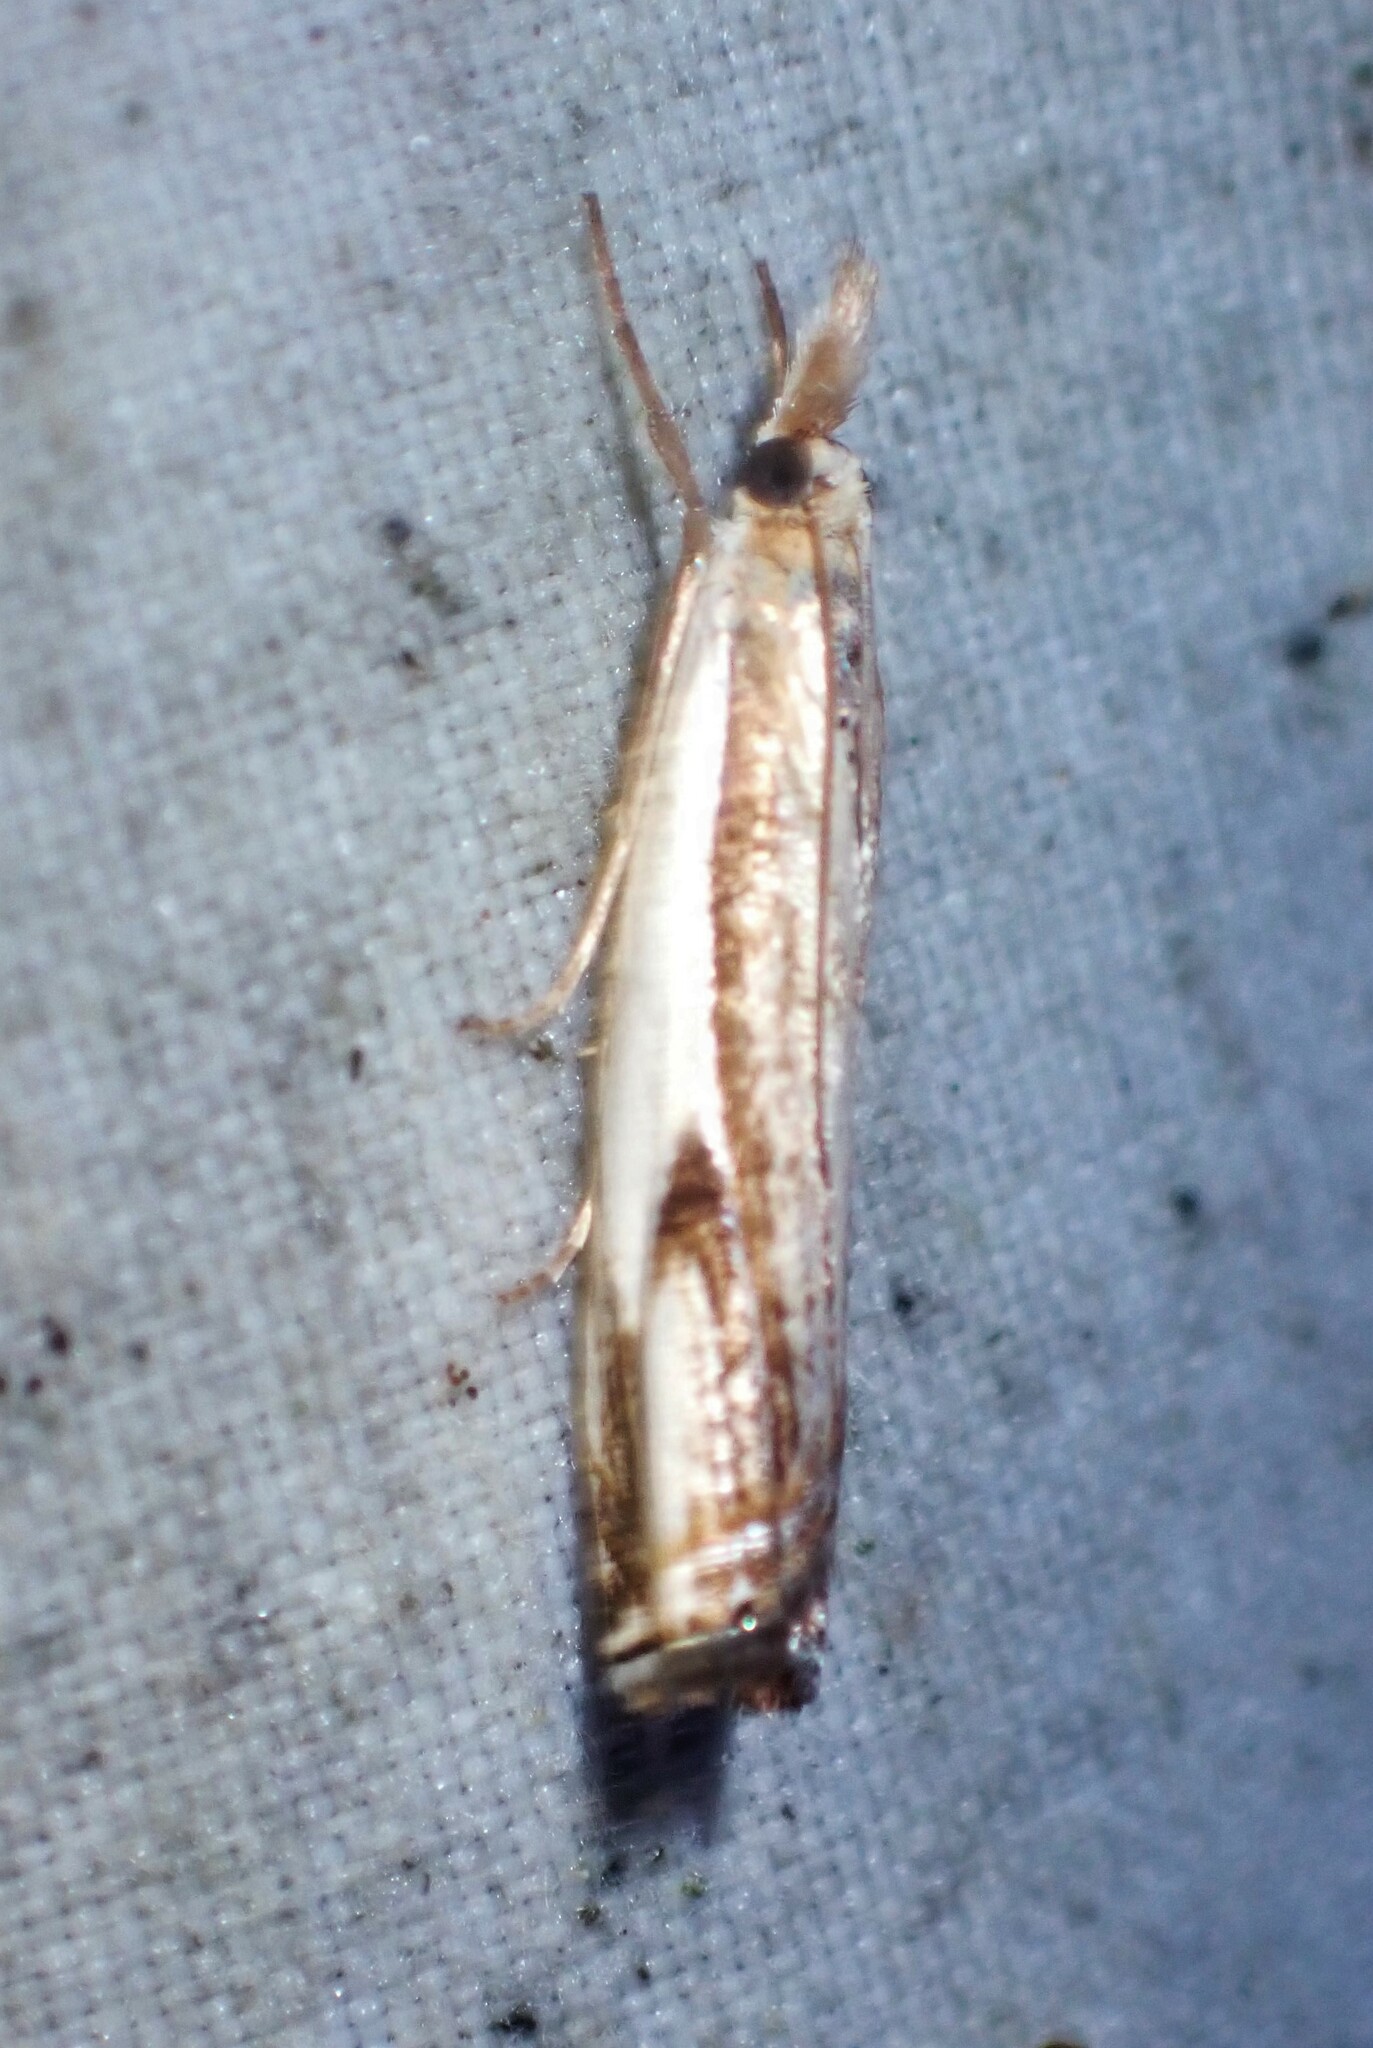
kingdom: Animalia
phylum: Arthropoda
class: Insecta
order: Lepidoptera
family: Crambidae
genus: Crambus
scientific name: Crambus agitatellus
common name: Double-banded grass-veneer
